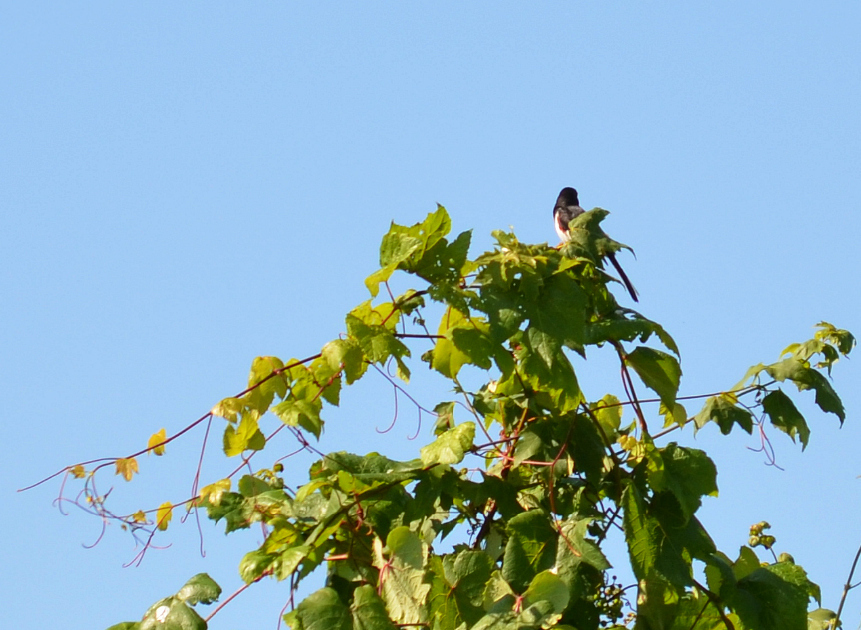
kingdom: Animalia
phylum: Chordata
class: Aves
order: Passeriformes
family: Passerellidae
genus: Pipilo
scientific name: Pipilo erythrophthalmus
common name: Eastern towhee
